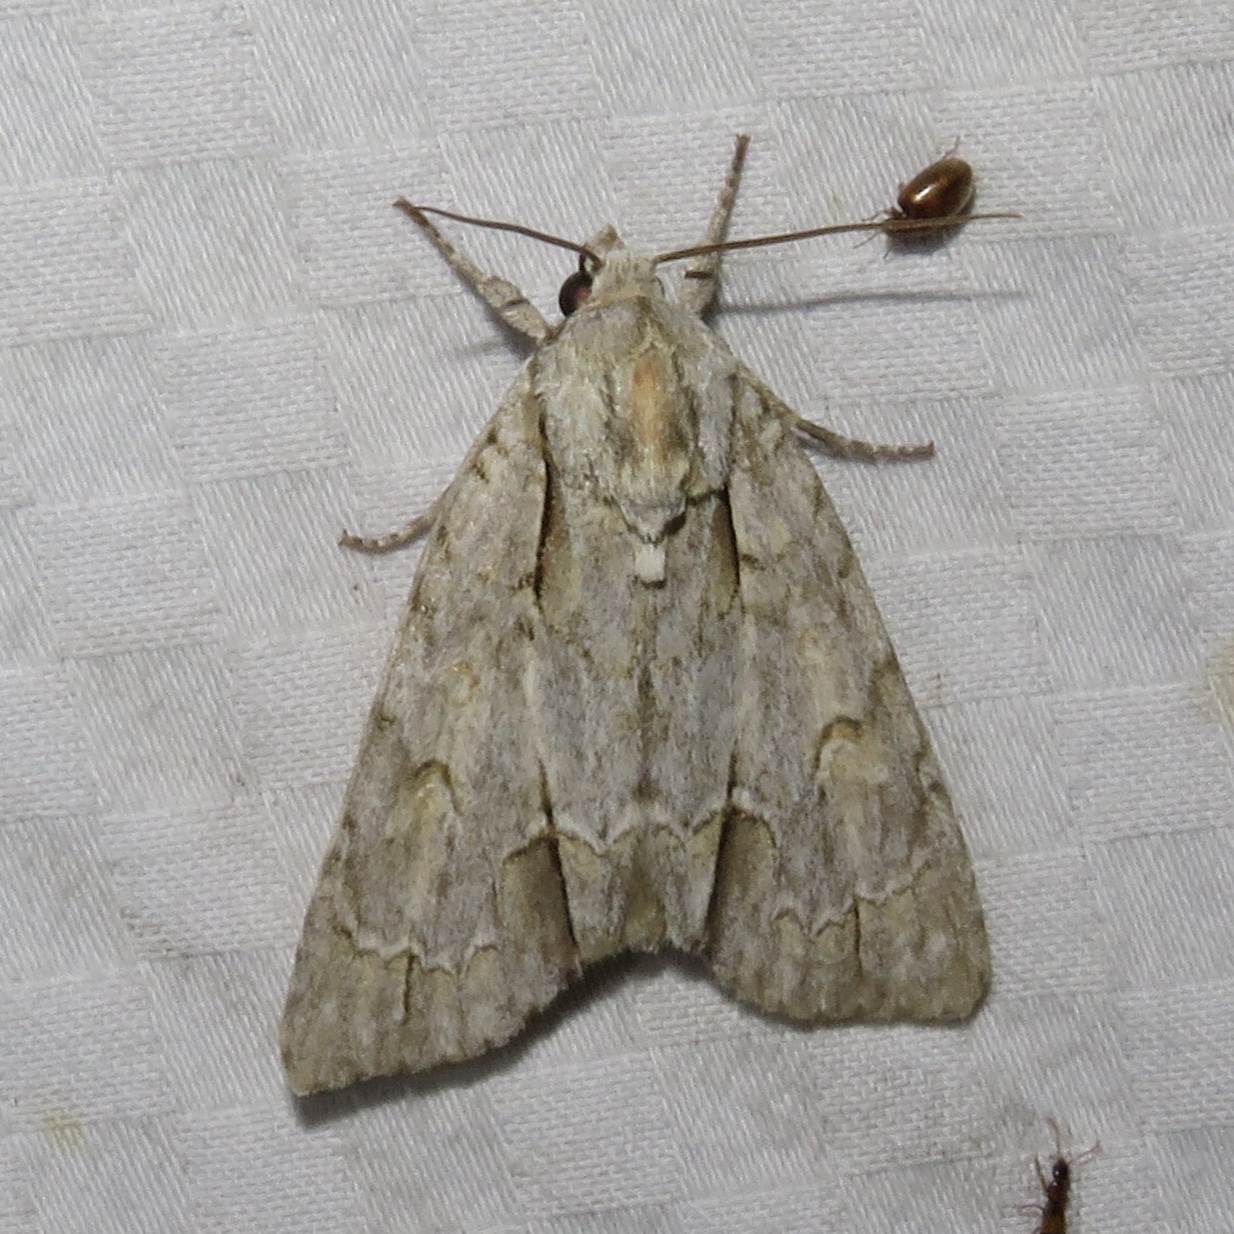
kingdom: Animalia
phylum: Arthropoda
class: Insecta
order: Lepidoptera
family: Noctuidae
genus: Acronicta
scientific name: Acronicta morula
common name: Ochre dagger
